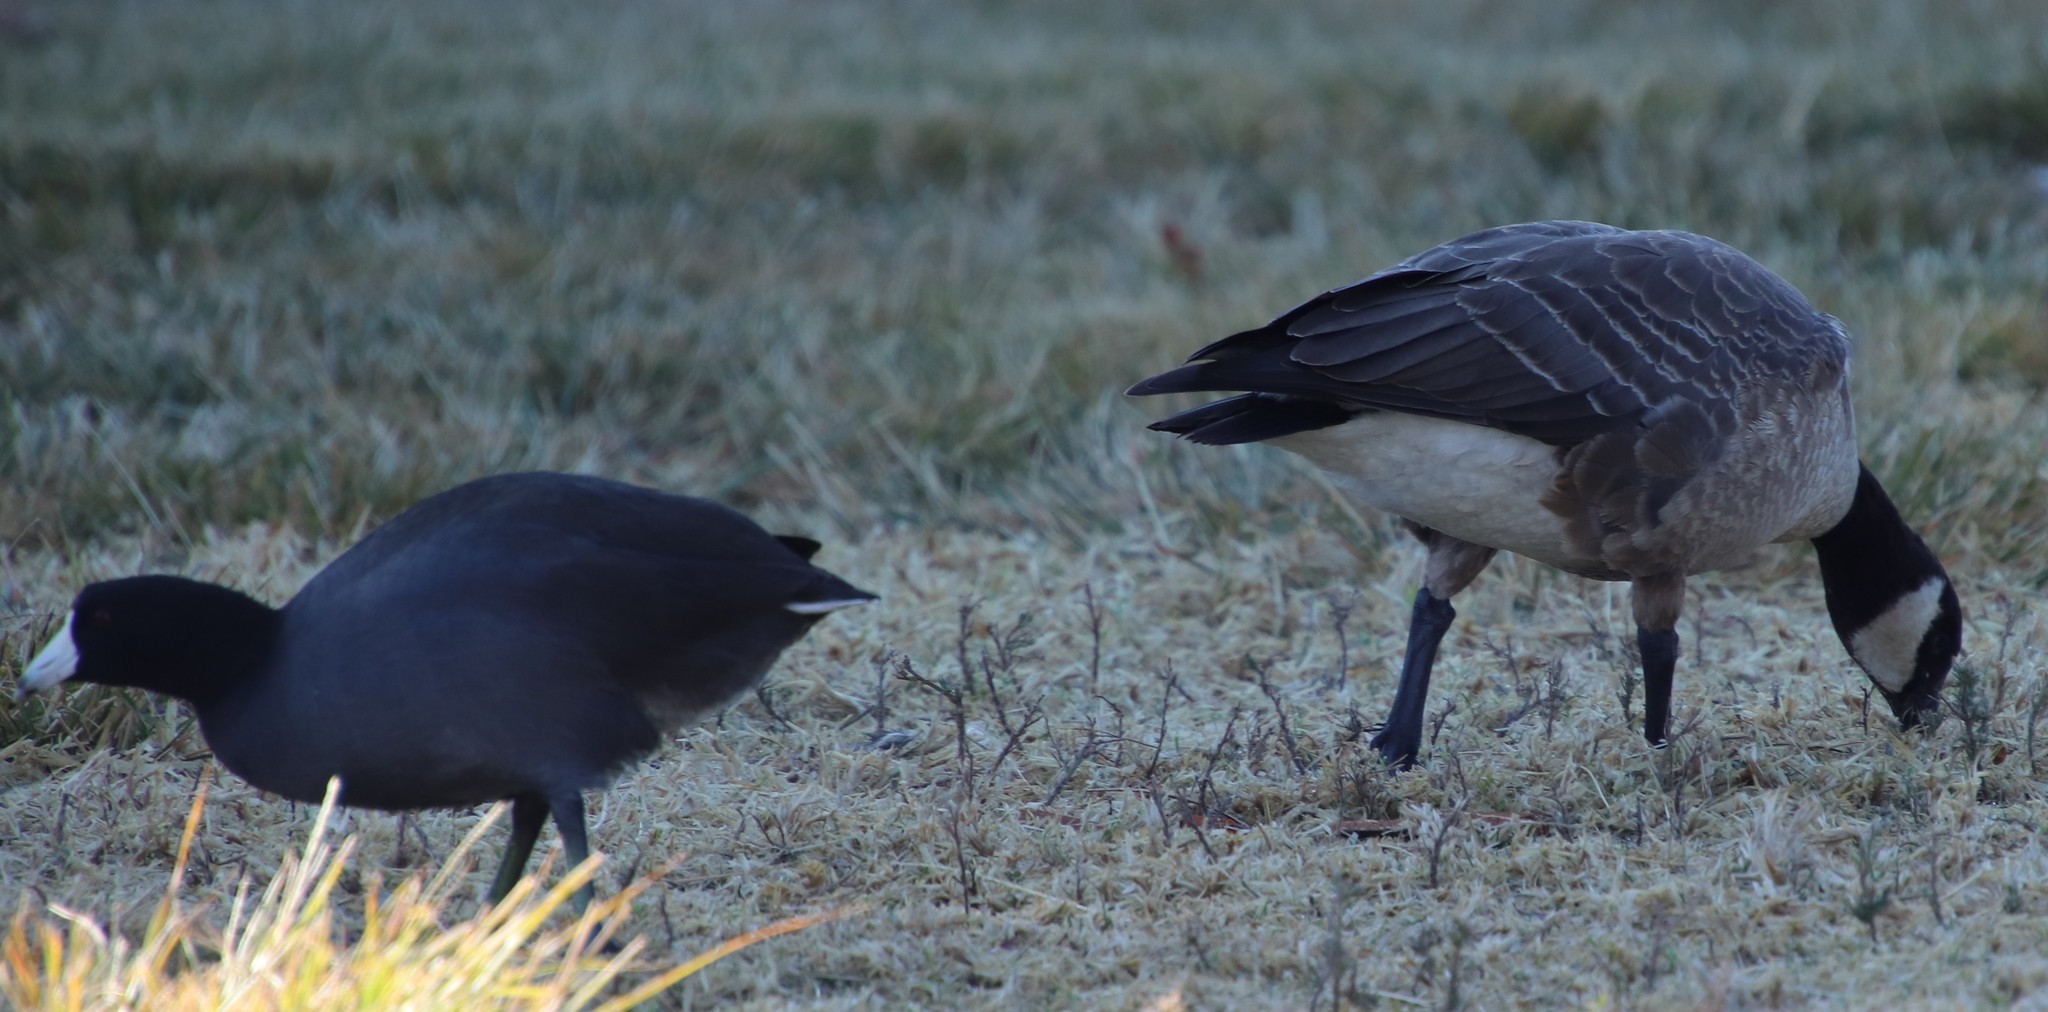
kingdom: Animalia
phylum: Chordata
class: Aves
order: Anseriformes
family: Anatidae
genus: Branta
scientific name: Branta hutchinsii
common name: Cackling goose
